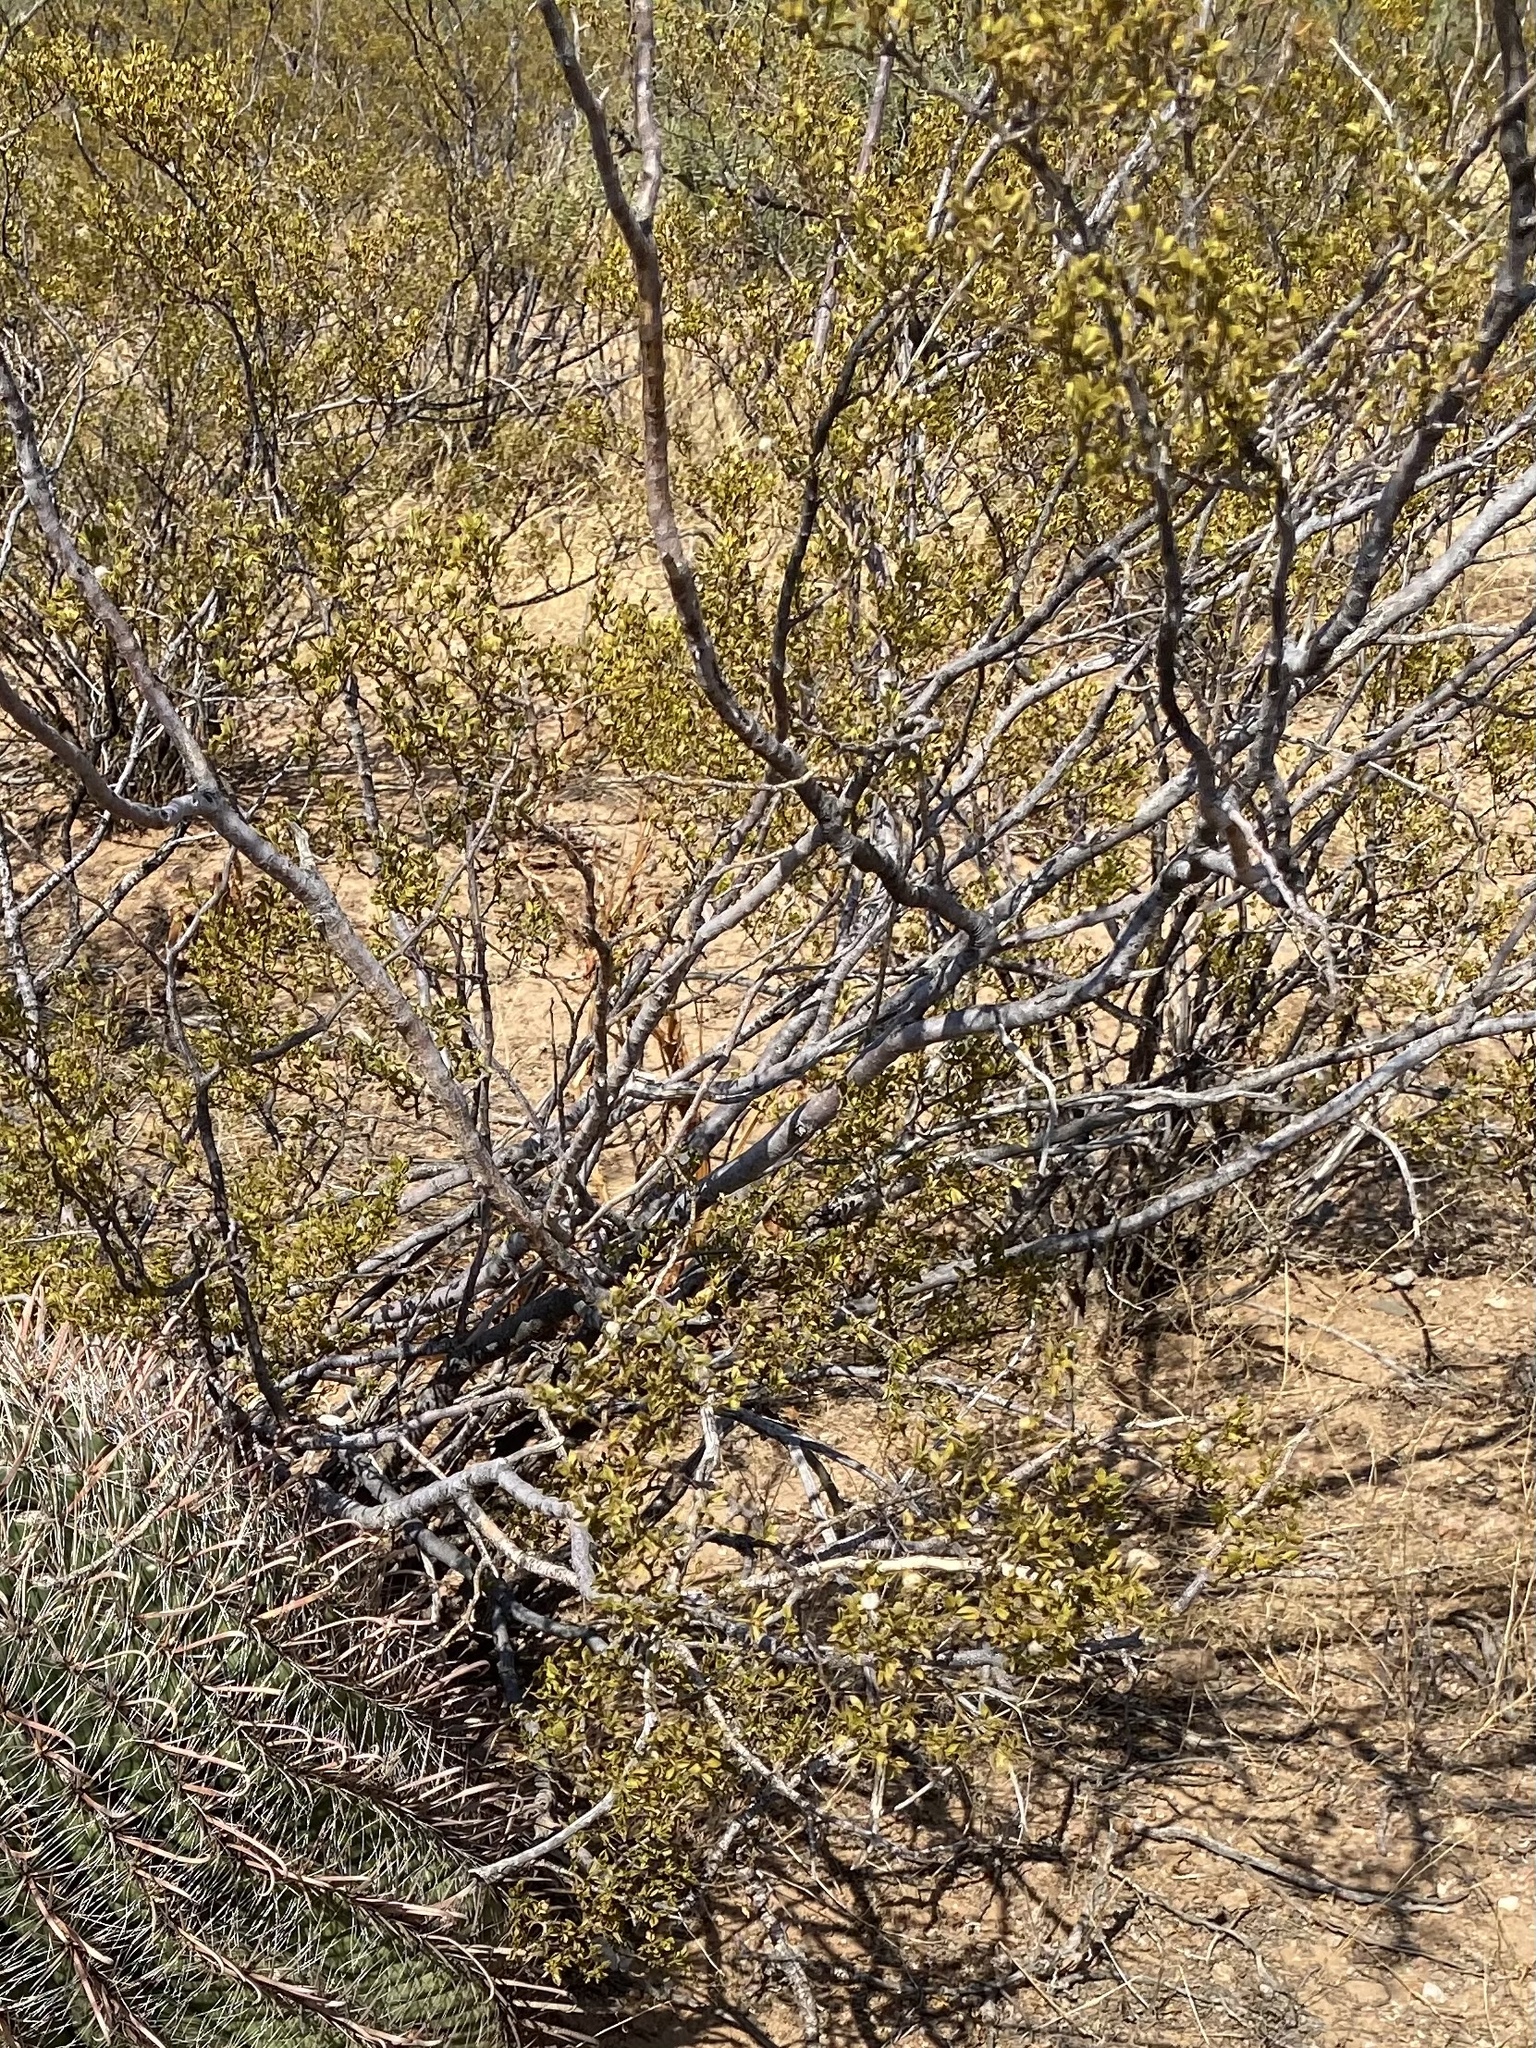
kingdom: Plantae
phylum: Tracheophyta
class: Magnoliopsida
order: Zygophyllales
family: Zygophyllaceae
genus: Larrea
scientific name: Larrea tridentata
